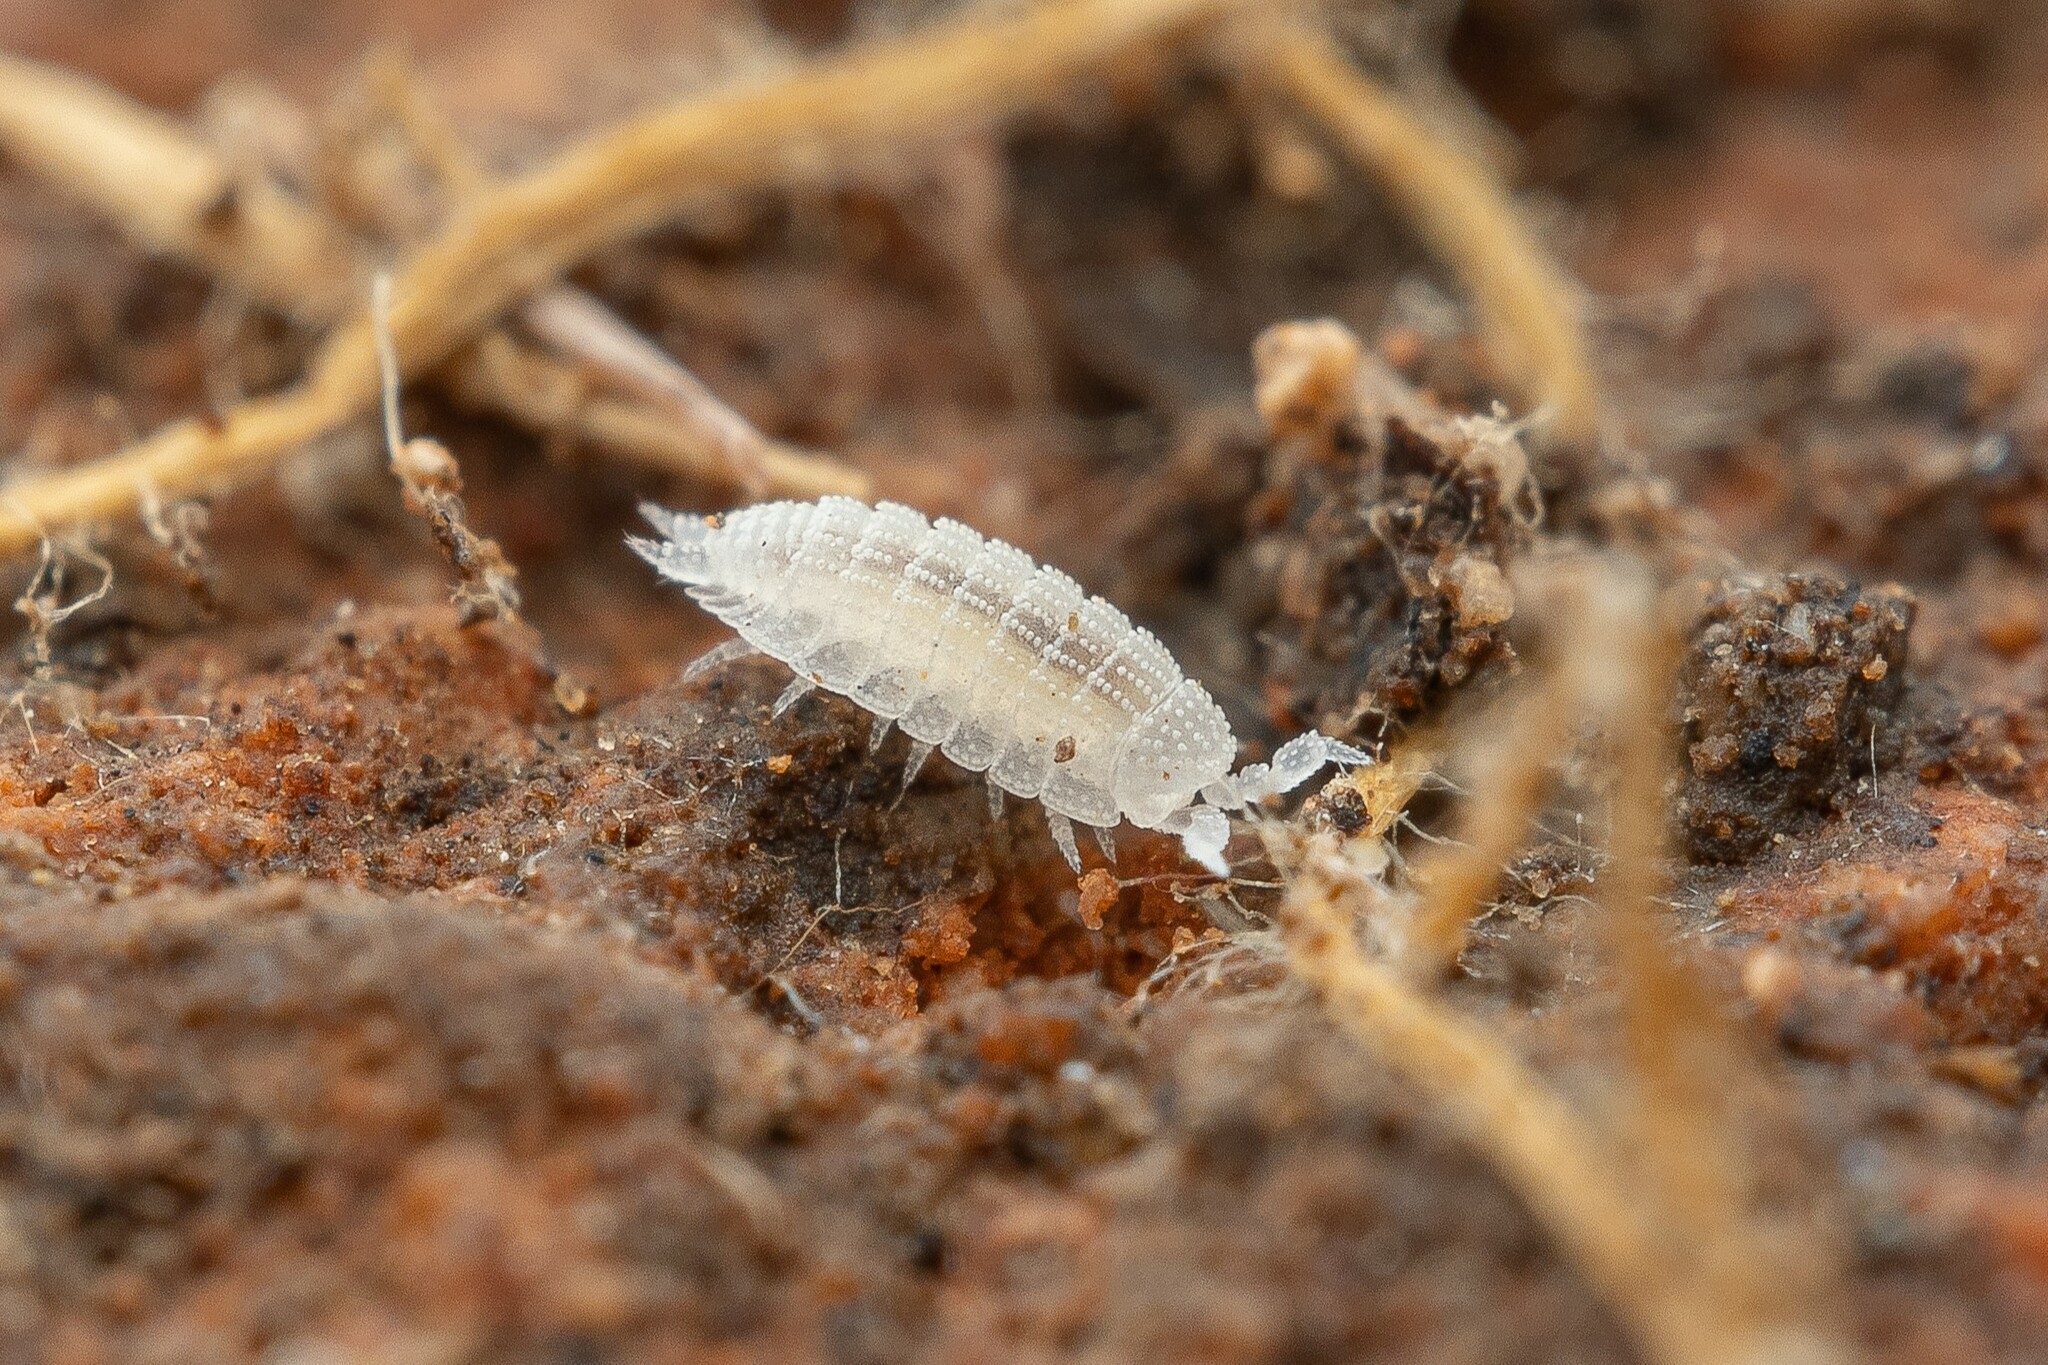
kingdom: Animalia
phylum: Arthropoda
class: Malacostraca
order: Isopoda
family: Platyarthridae
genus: Platyarthrus
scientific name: Platyarthrus
